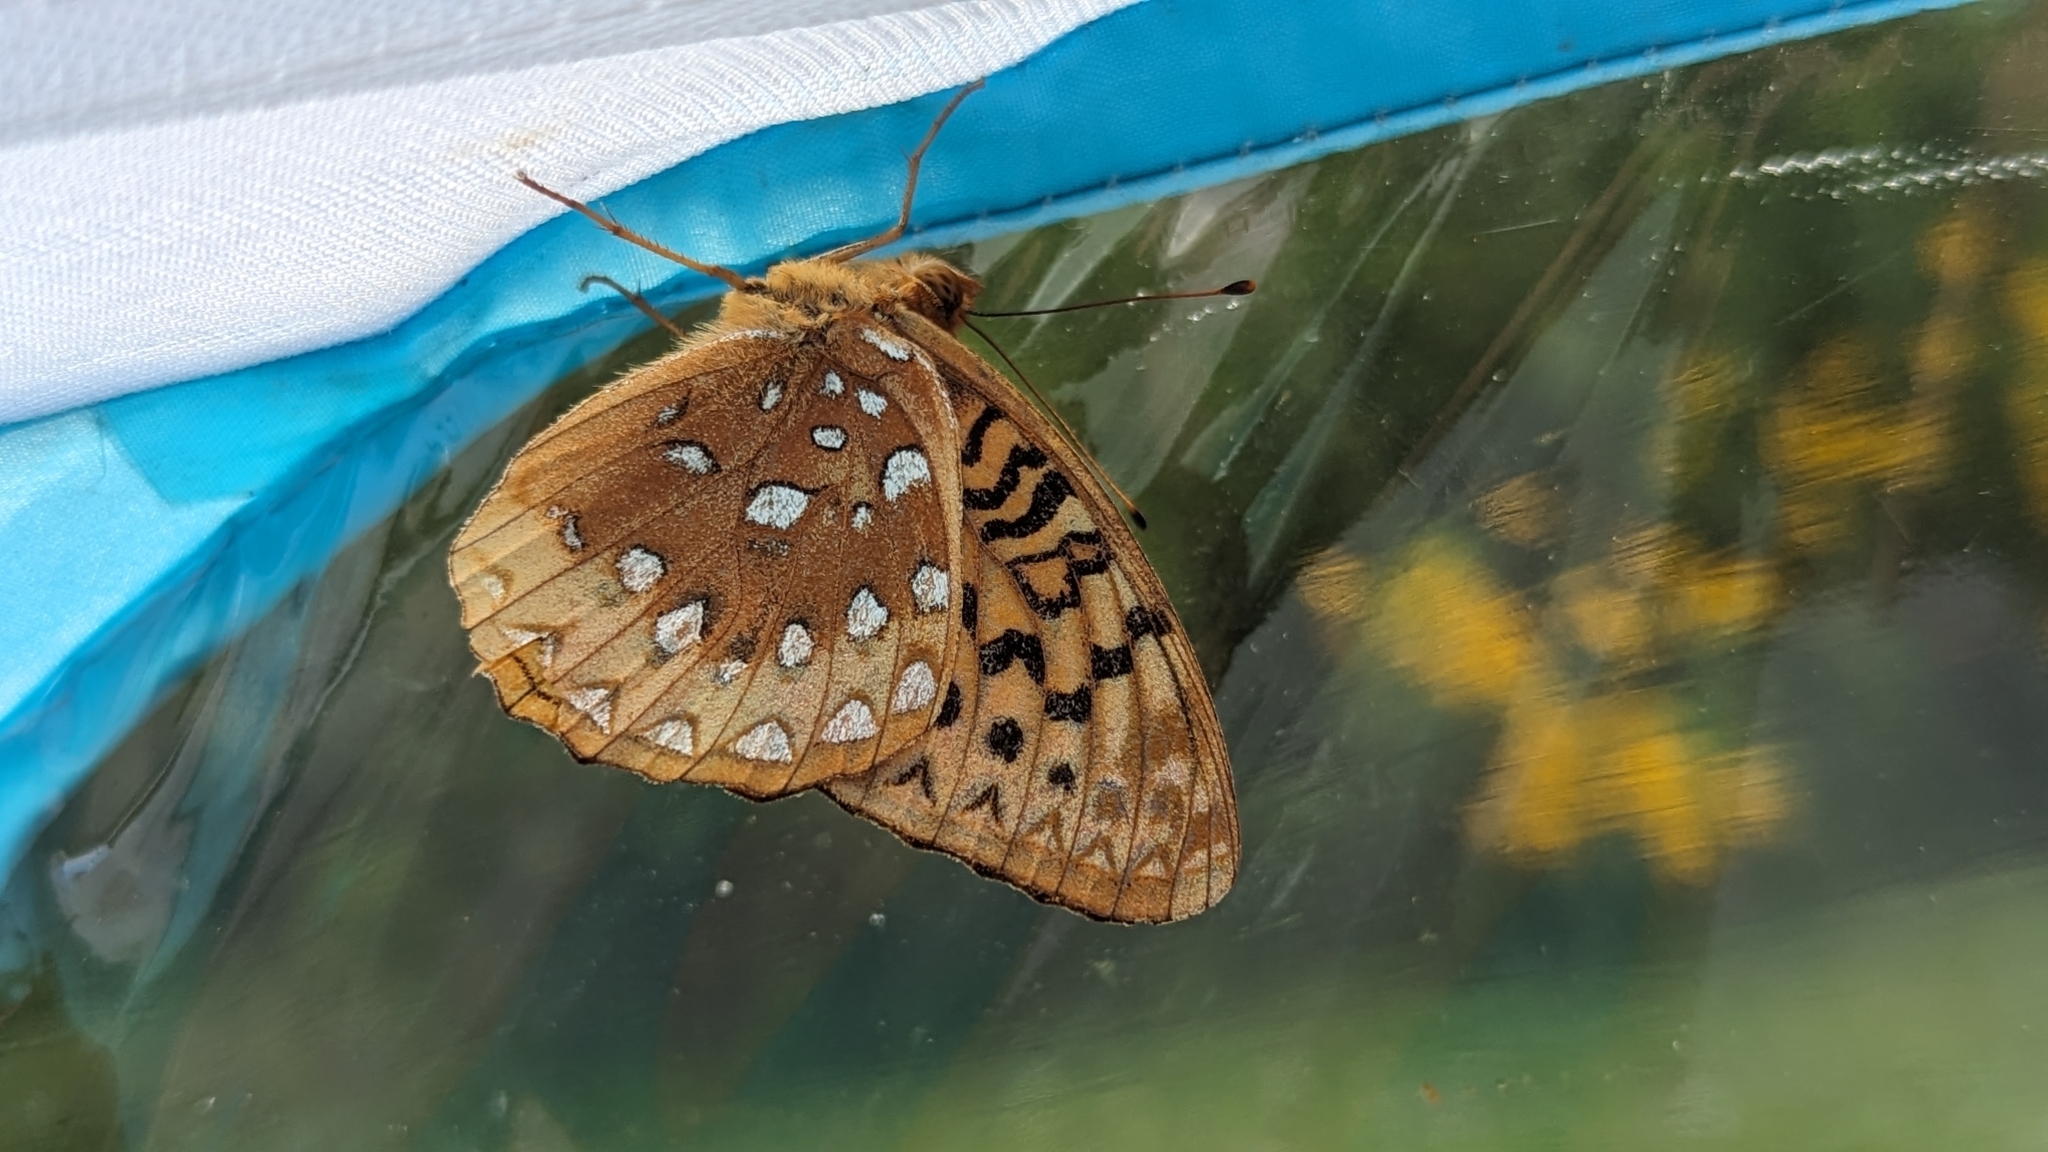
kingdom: Animalia
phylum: Arthropoda
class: Insecta
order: Lepidoptera
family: Nymphalidae
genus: Speyeria
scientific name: Speyeria cybele
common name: Great spangled fritillary
